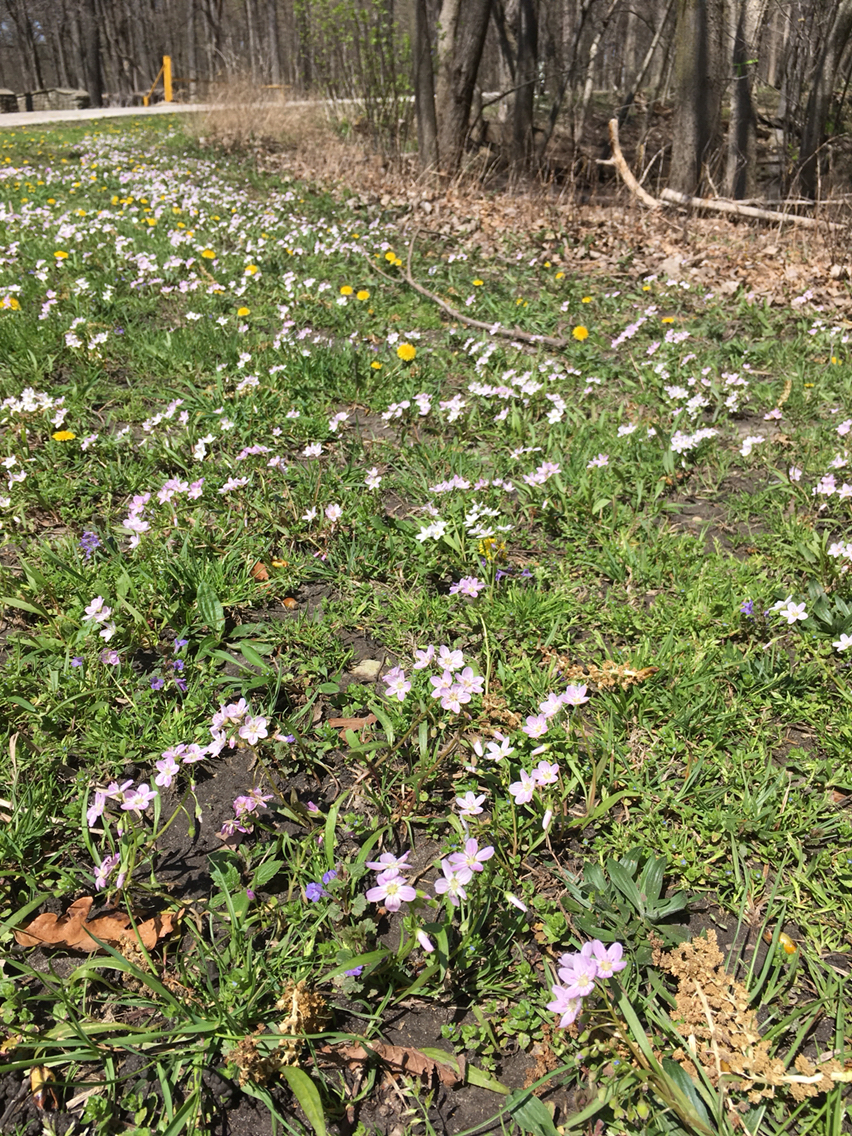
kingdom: Plantae
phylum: Tracheophyta
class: Magnoliopsida
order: Caryophyllales
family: Montiaceae
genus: Claytonia
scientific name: Claytonia virginica
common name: Virginia springbeauty
